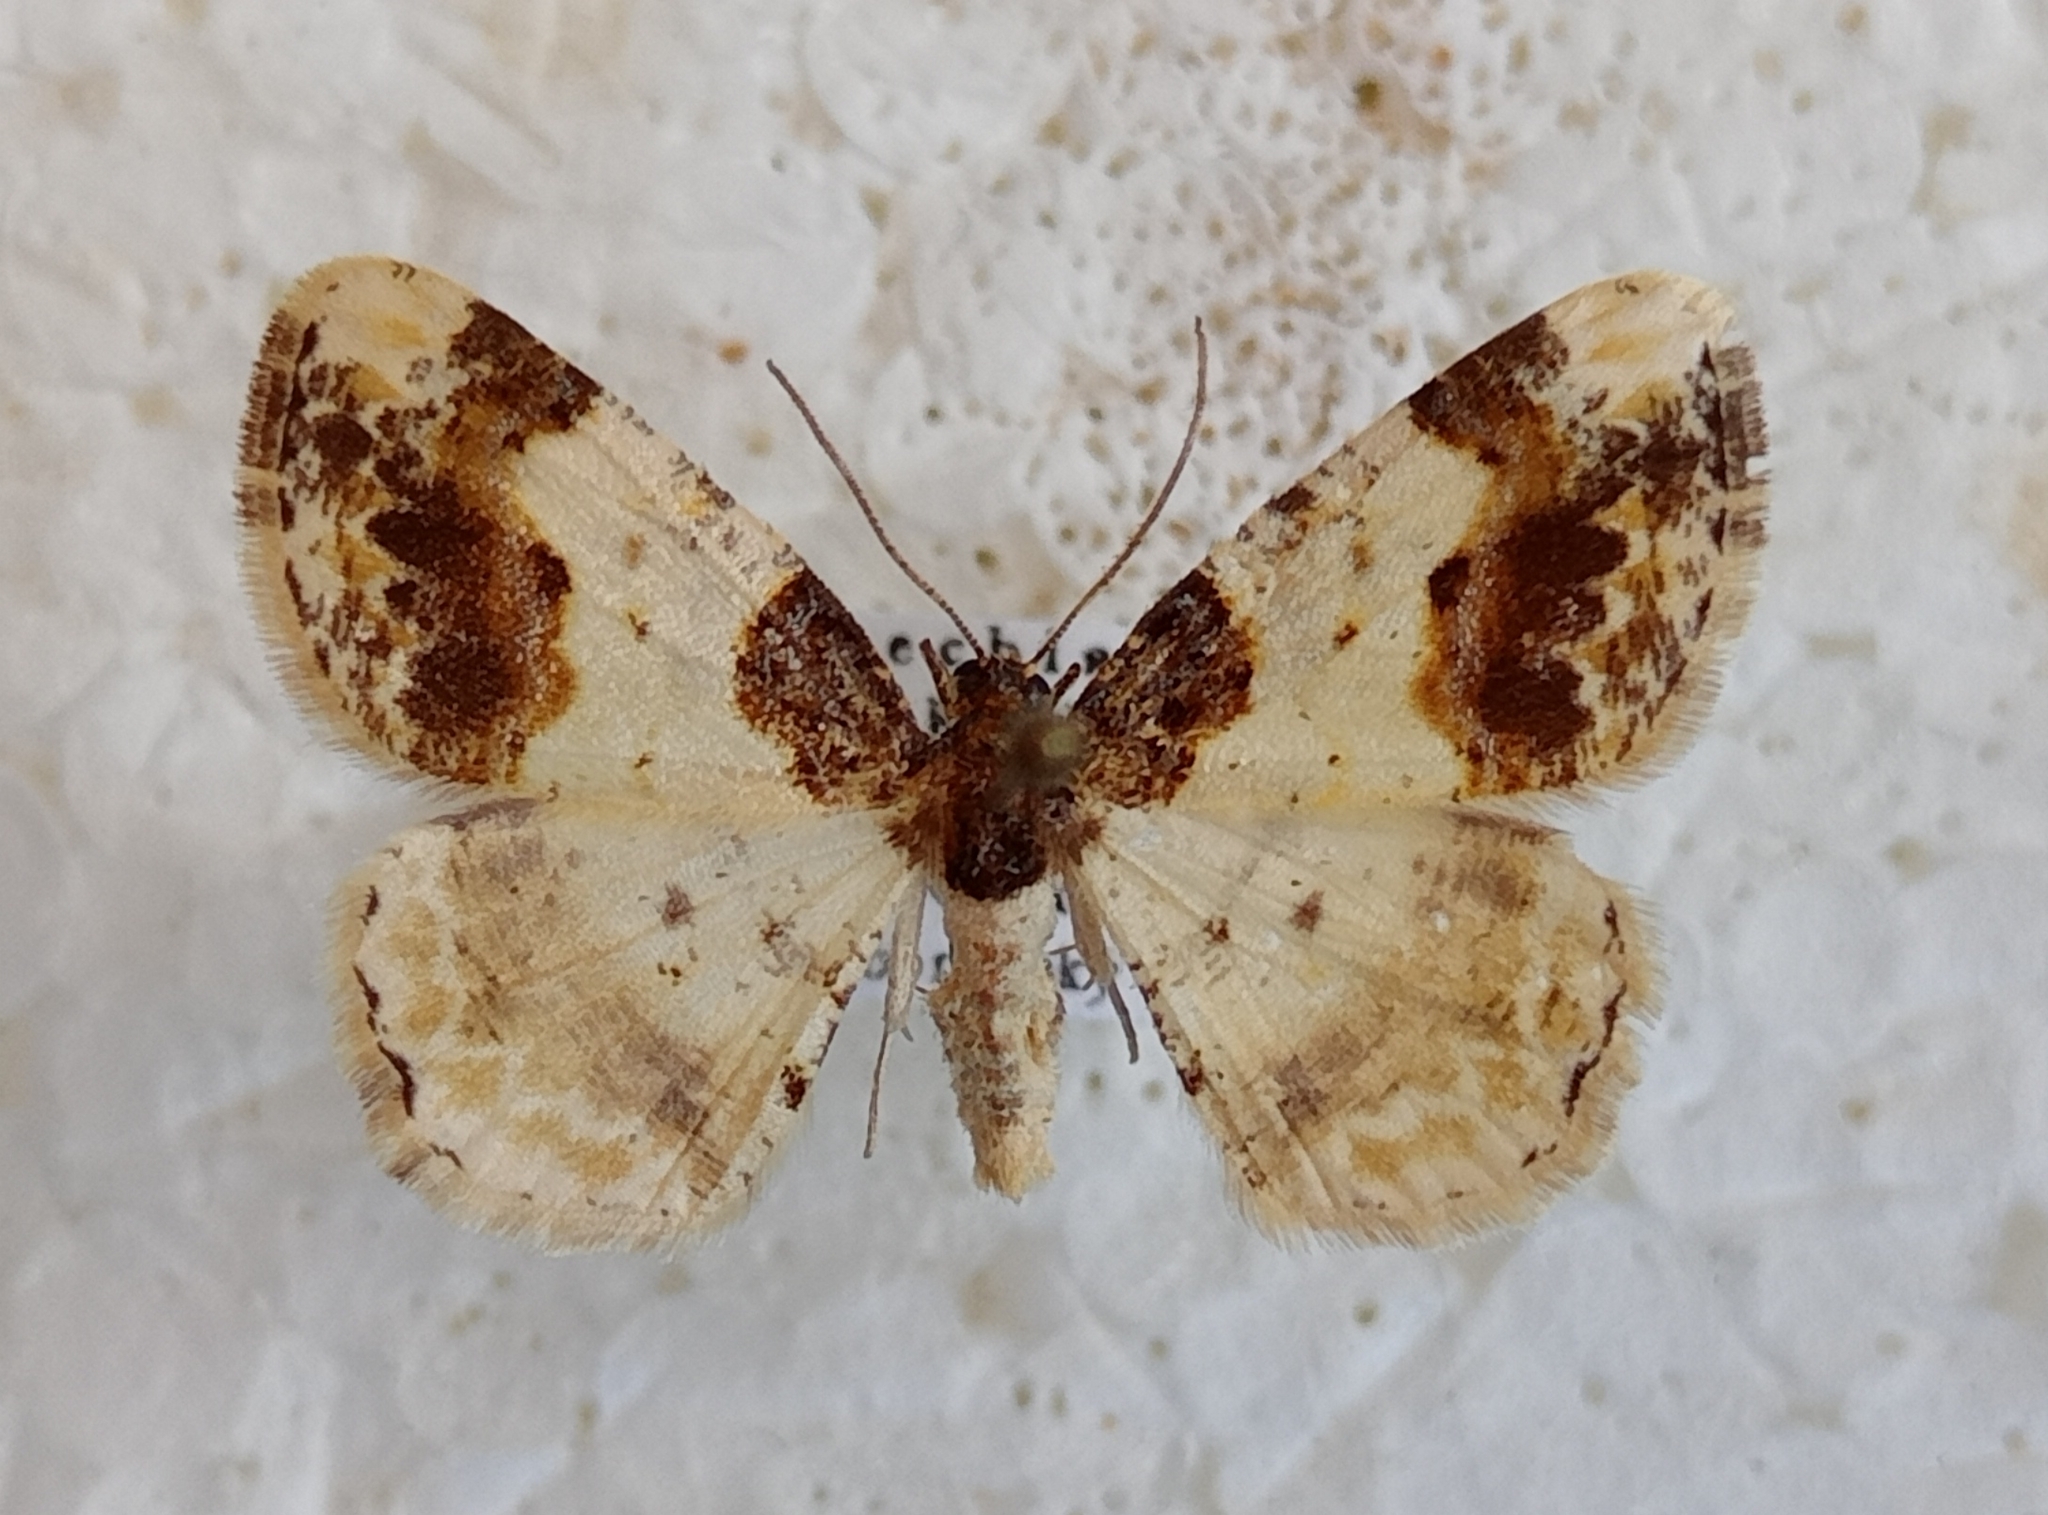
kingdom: Animalia
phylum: Arthropoda
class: Insecta
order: Lepidoptera
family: Geometridae
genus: Ligdia
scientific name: Ligdia adustata
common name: Scorched carpet
